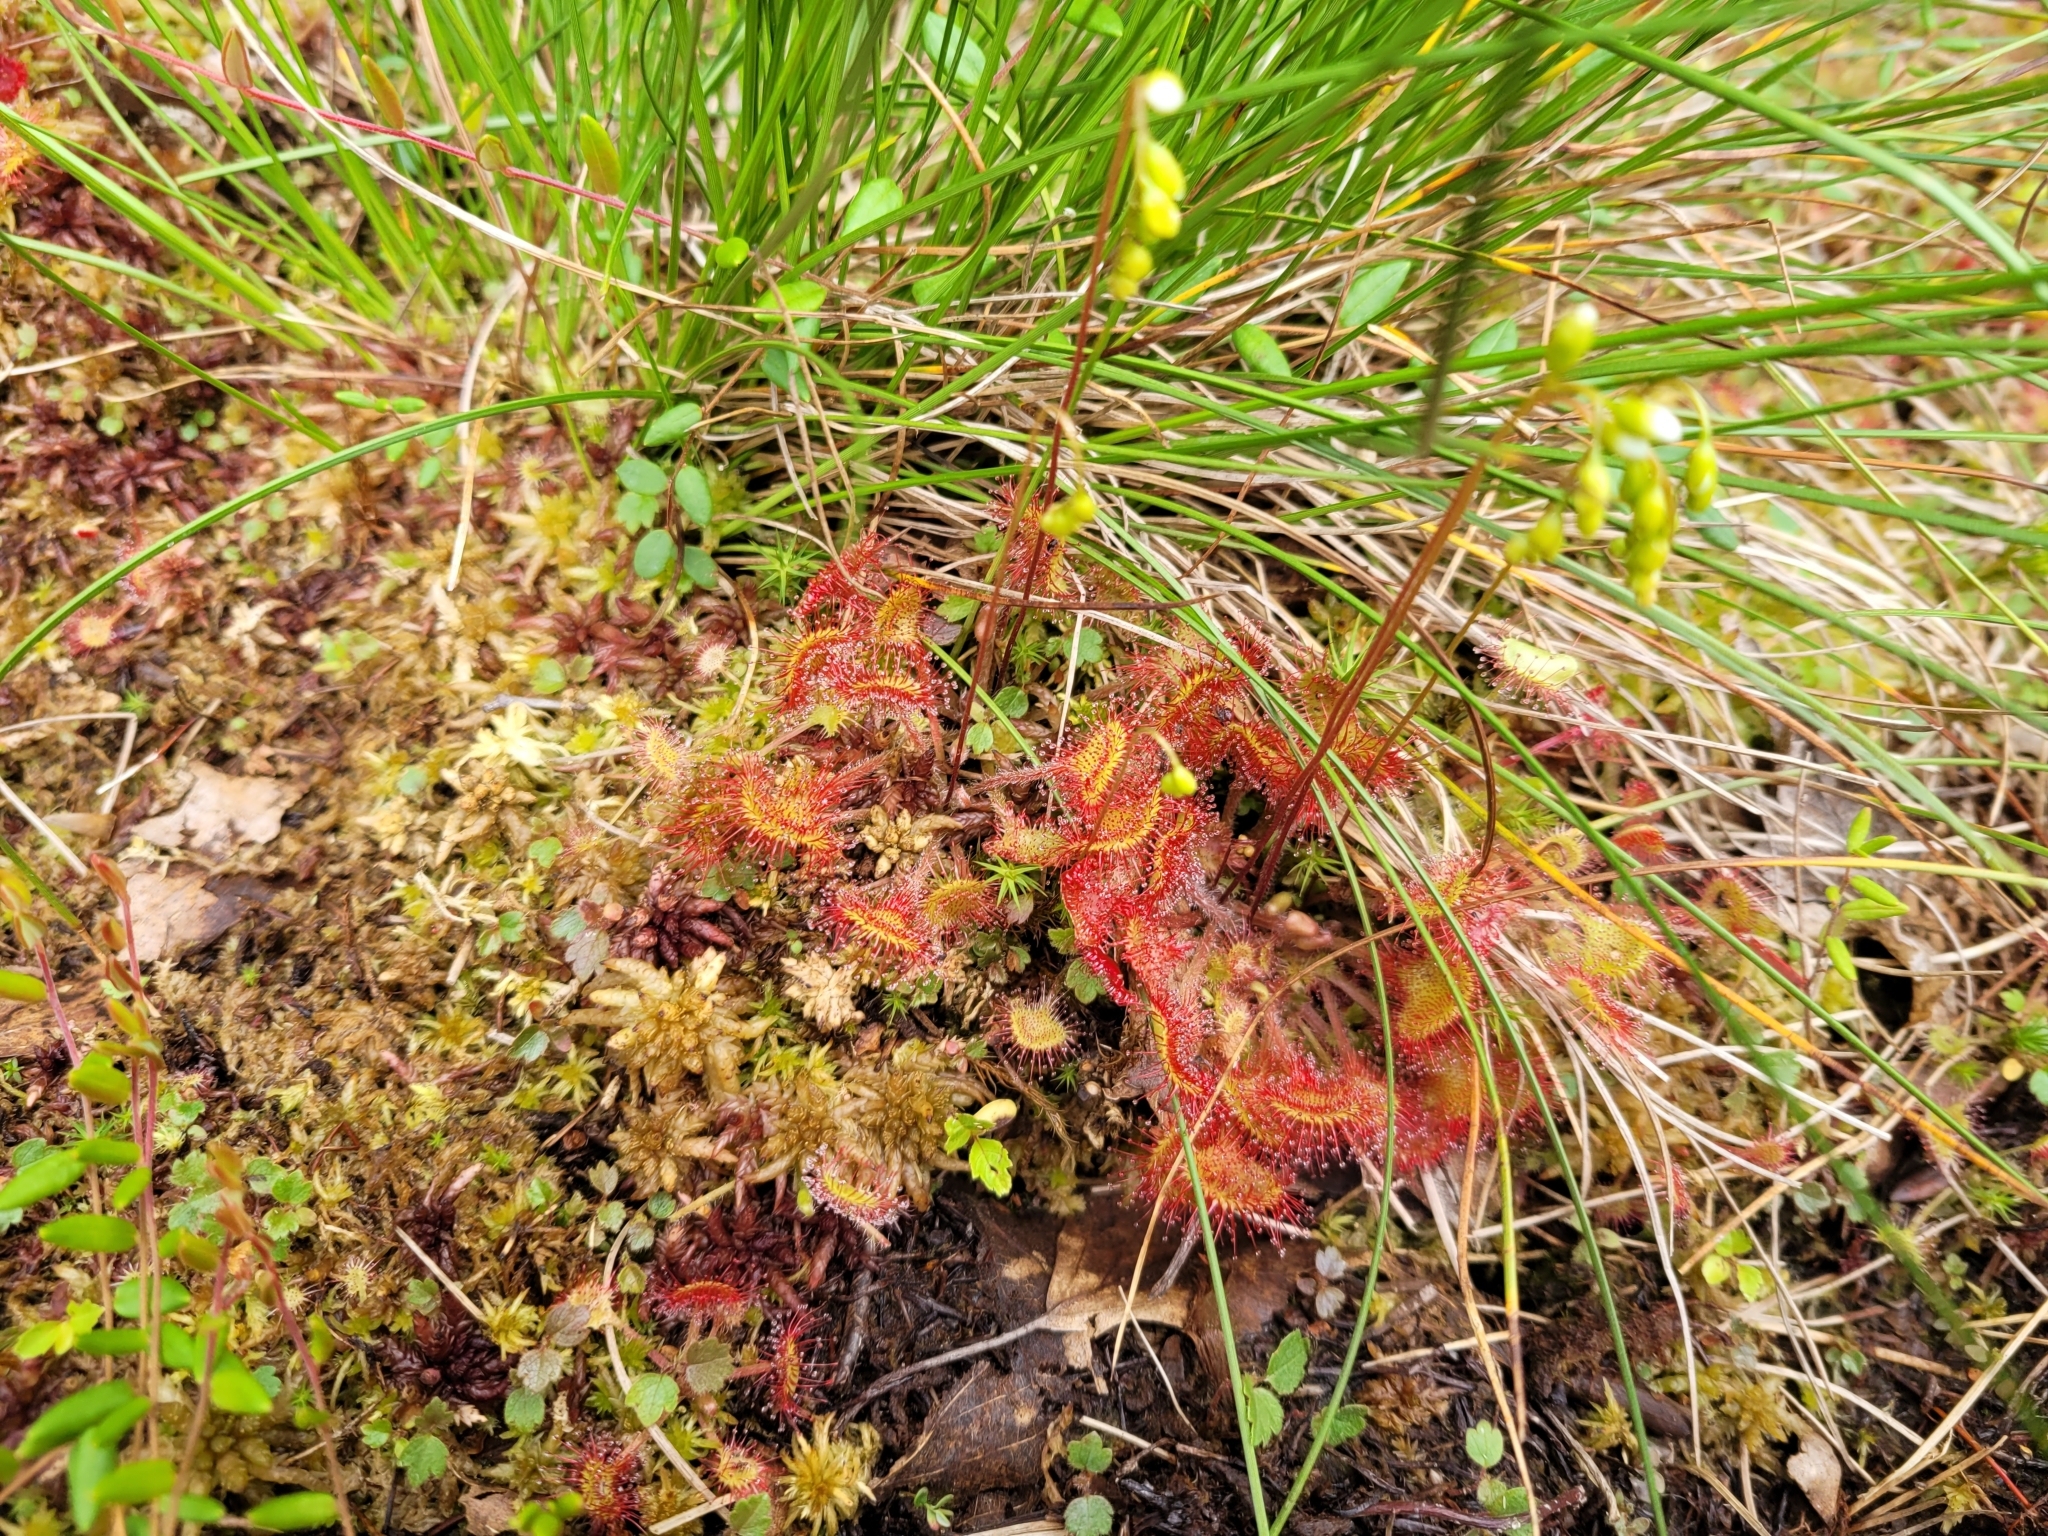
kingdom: Plantae
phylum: Tracheophyta
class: Magnoliopsida
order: Caryophyllales
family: Droseraceae
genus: Drosera
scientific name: Drosera rotundifolia
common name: Round-leaved sundew
